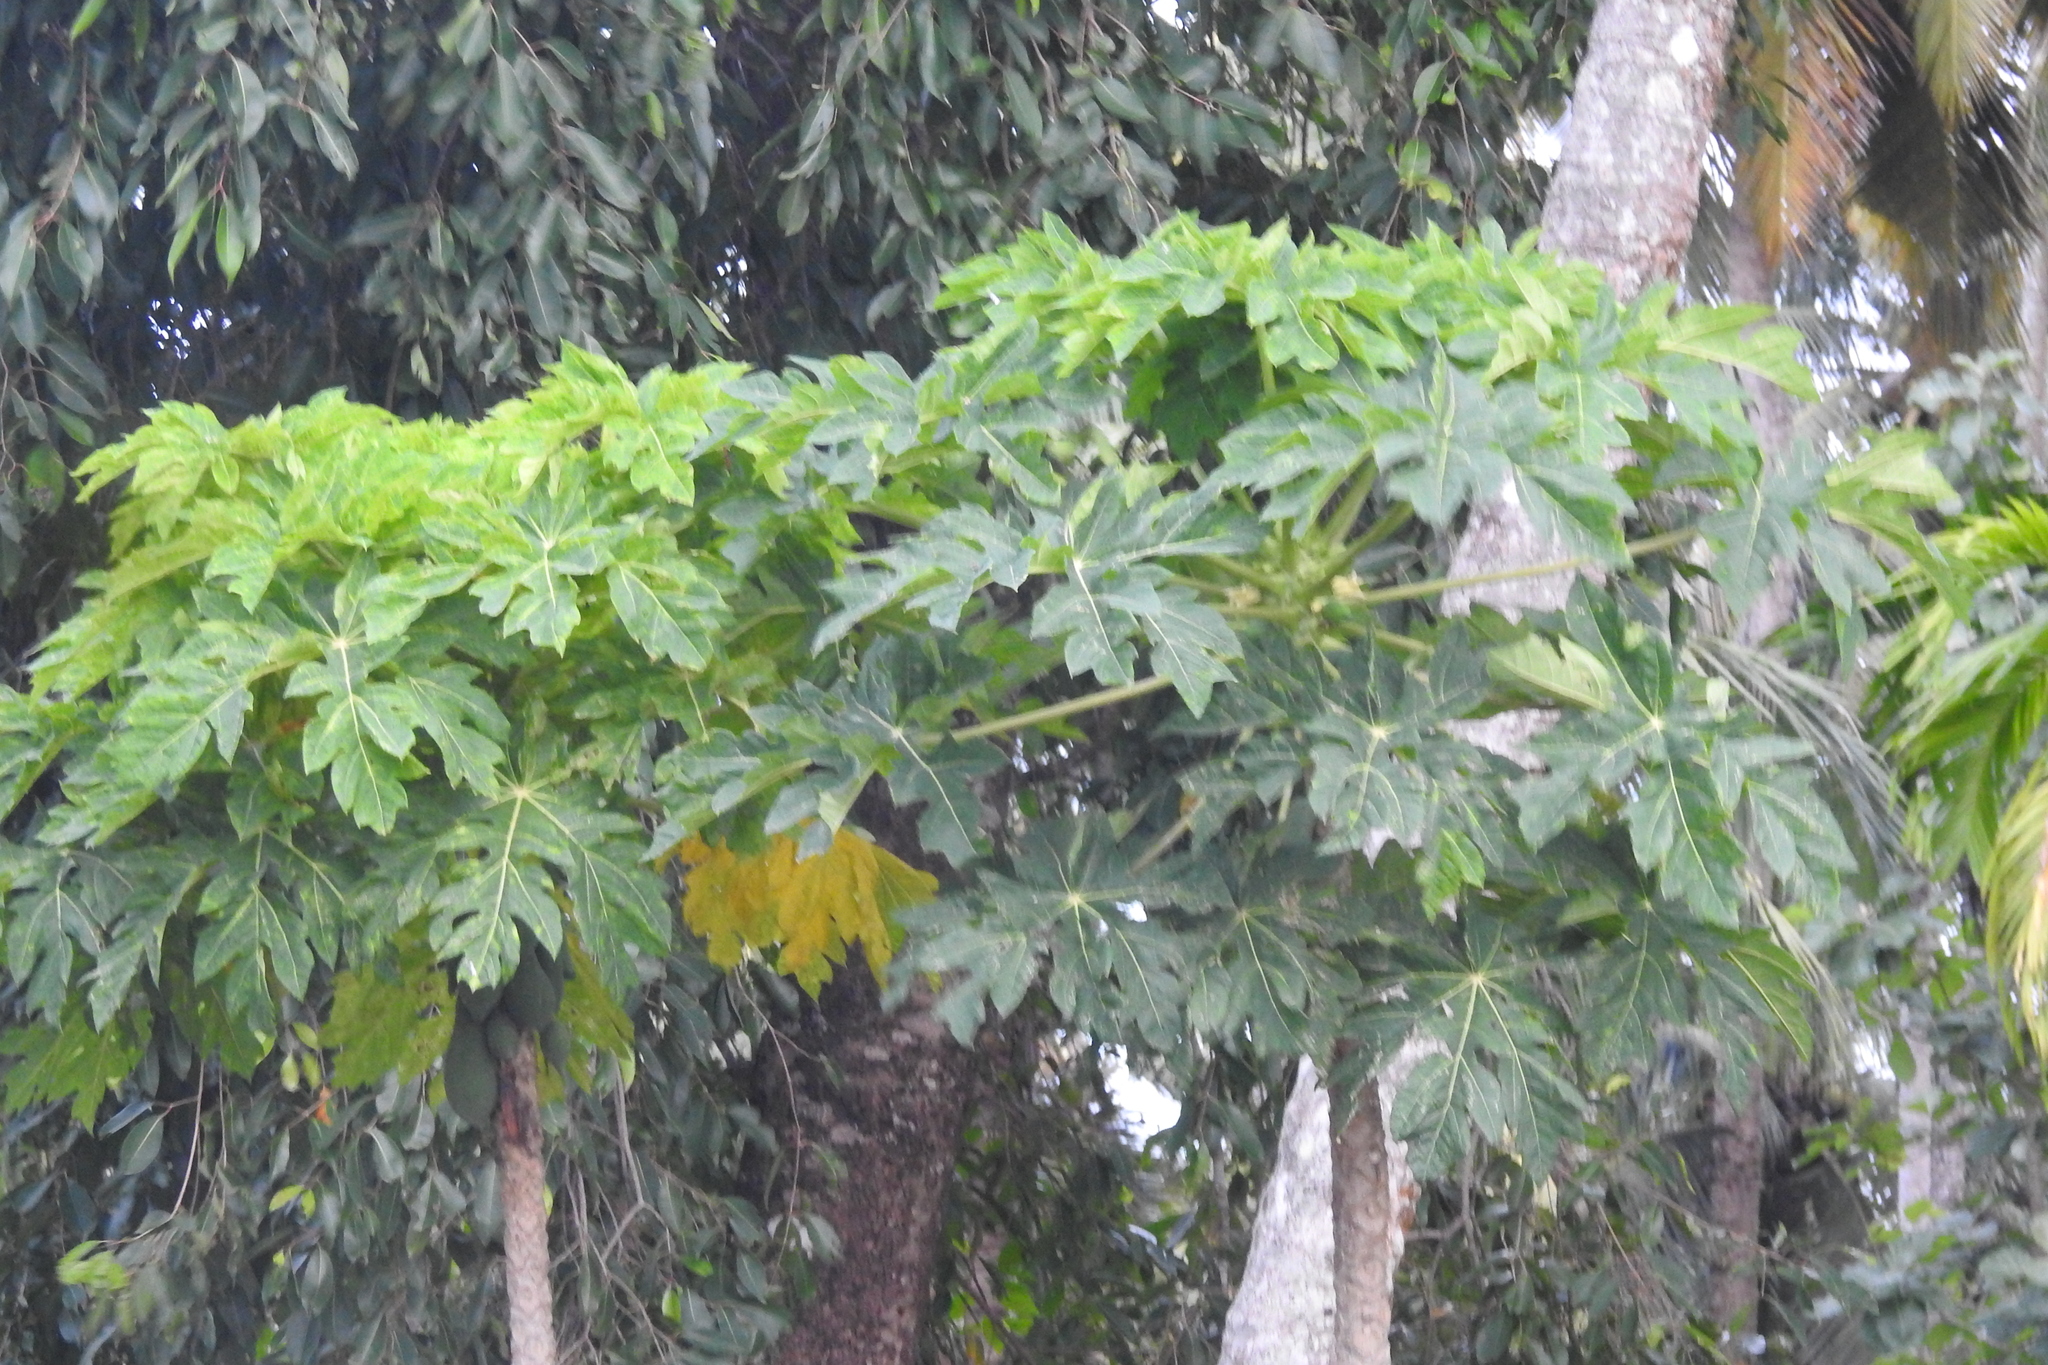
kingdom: Plantae
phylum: Tracheophyta
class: Magnoliopsida
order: Brassicales
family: Caricaceae
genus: Carica
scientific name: Carica papaya
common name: Papaya
